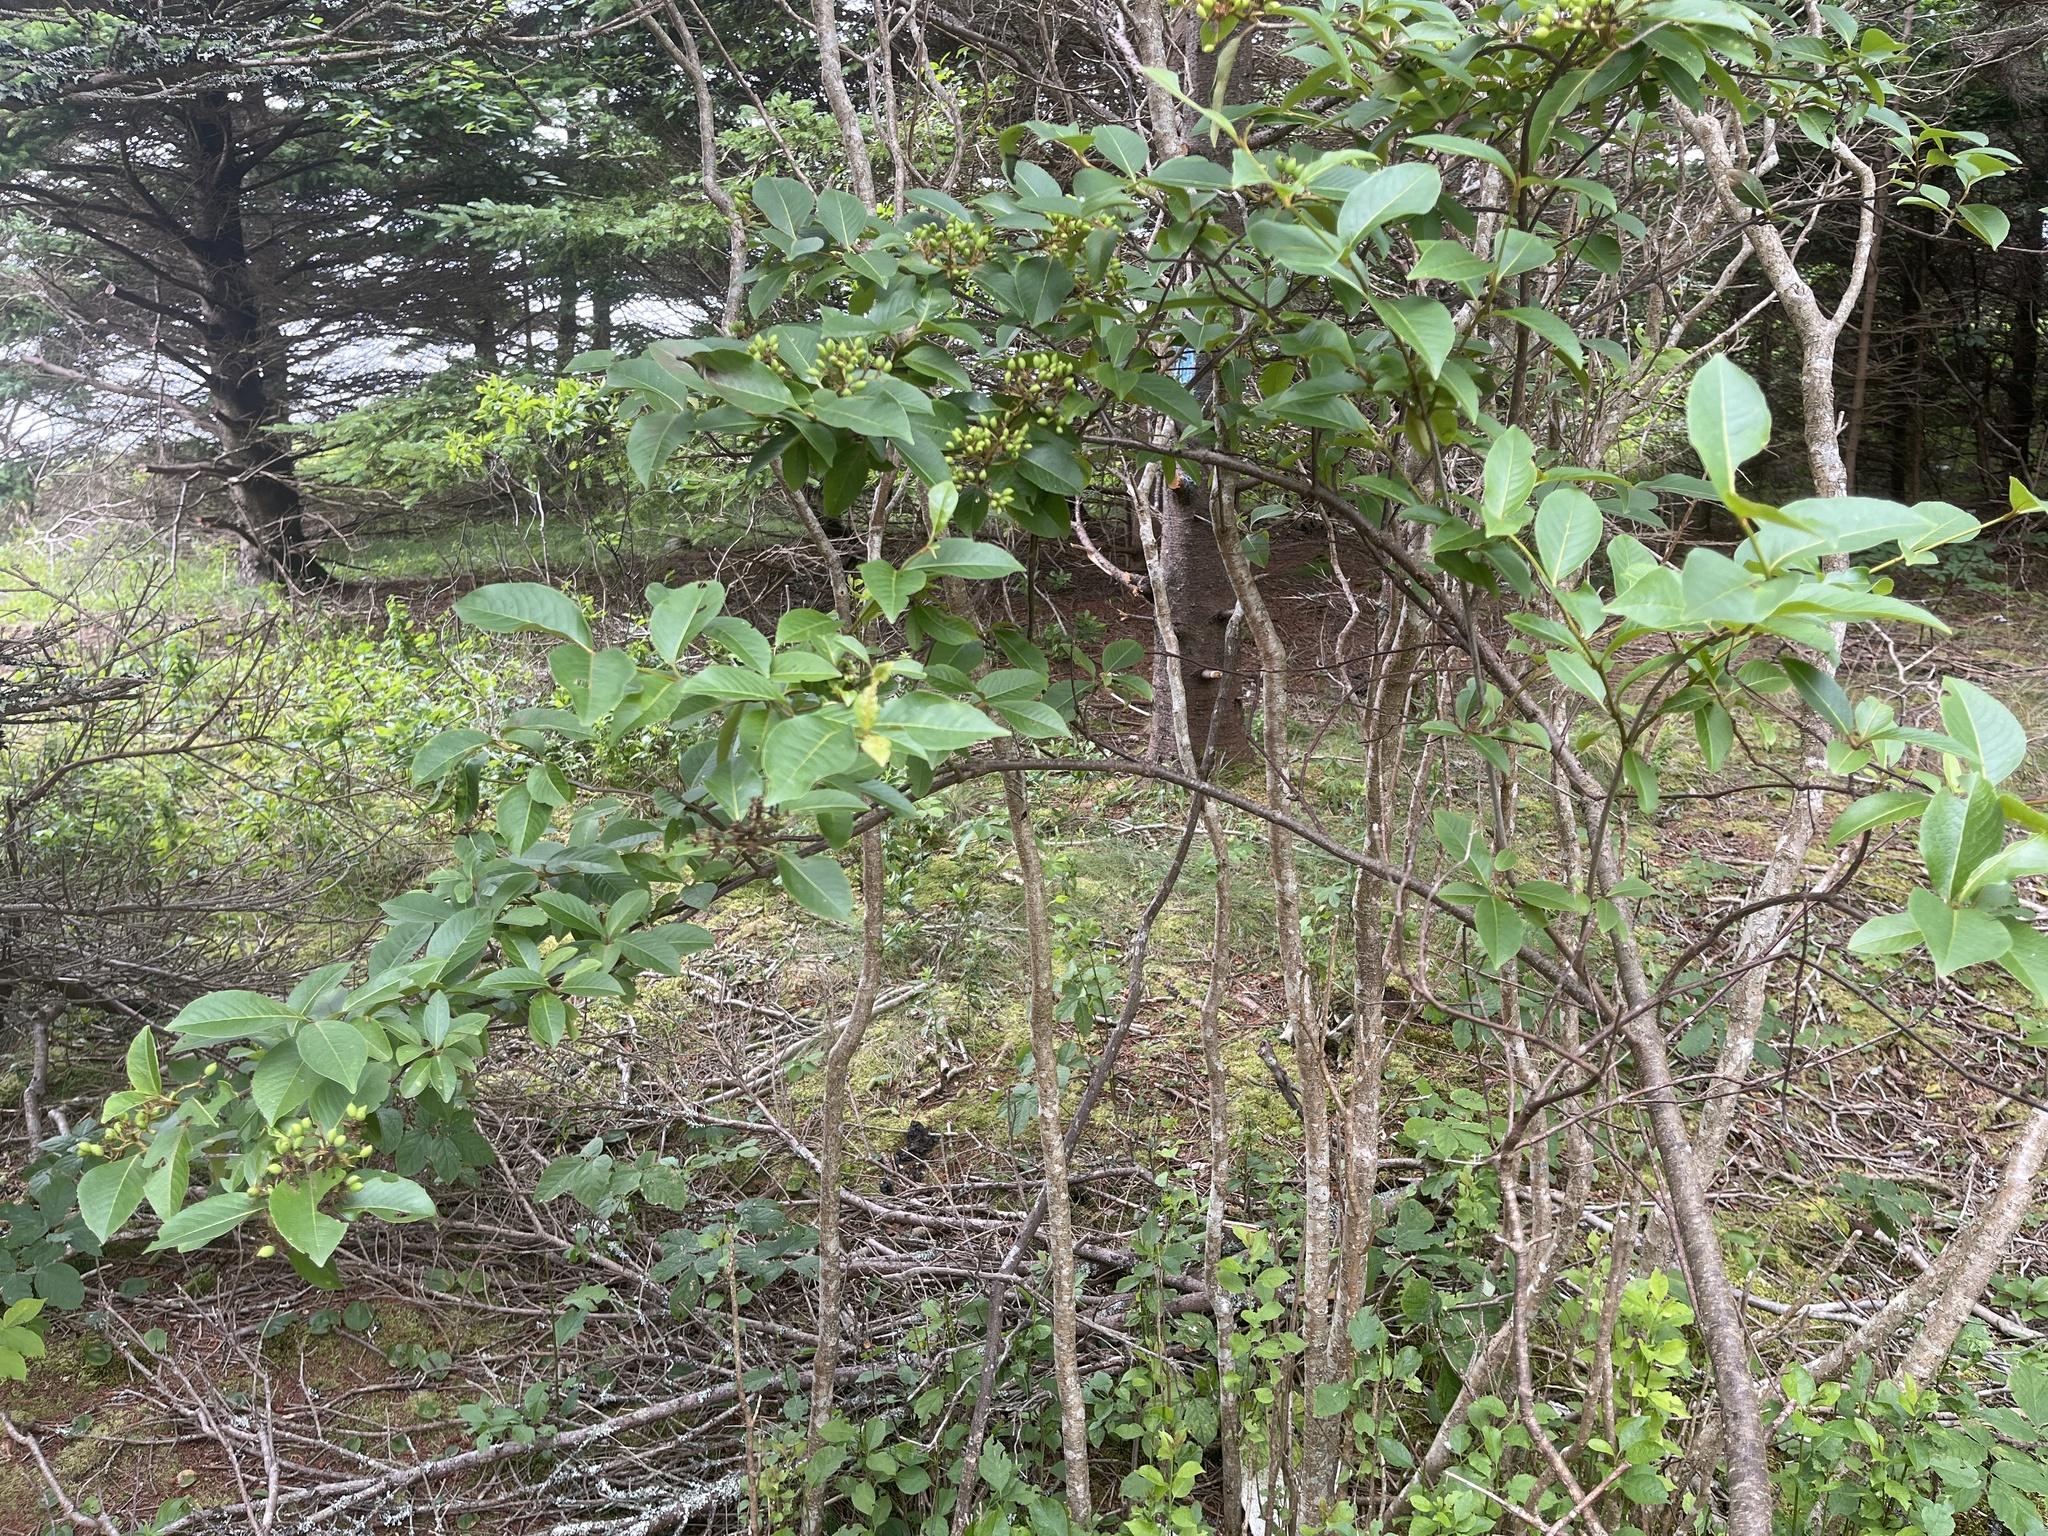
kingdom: Plantae
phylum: Tracheophyta
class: Magnoliopsida
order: Dipsacales
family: Viburnaceae
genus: Viburnum
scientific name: Viburnum cassinoides
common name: Swamp haw
